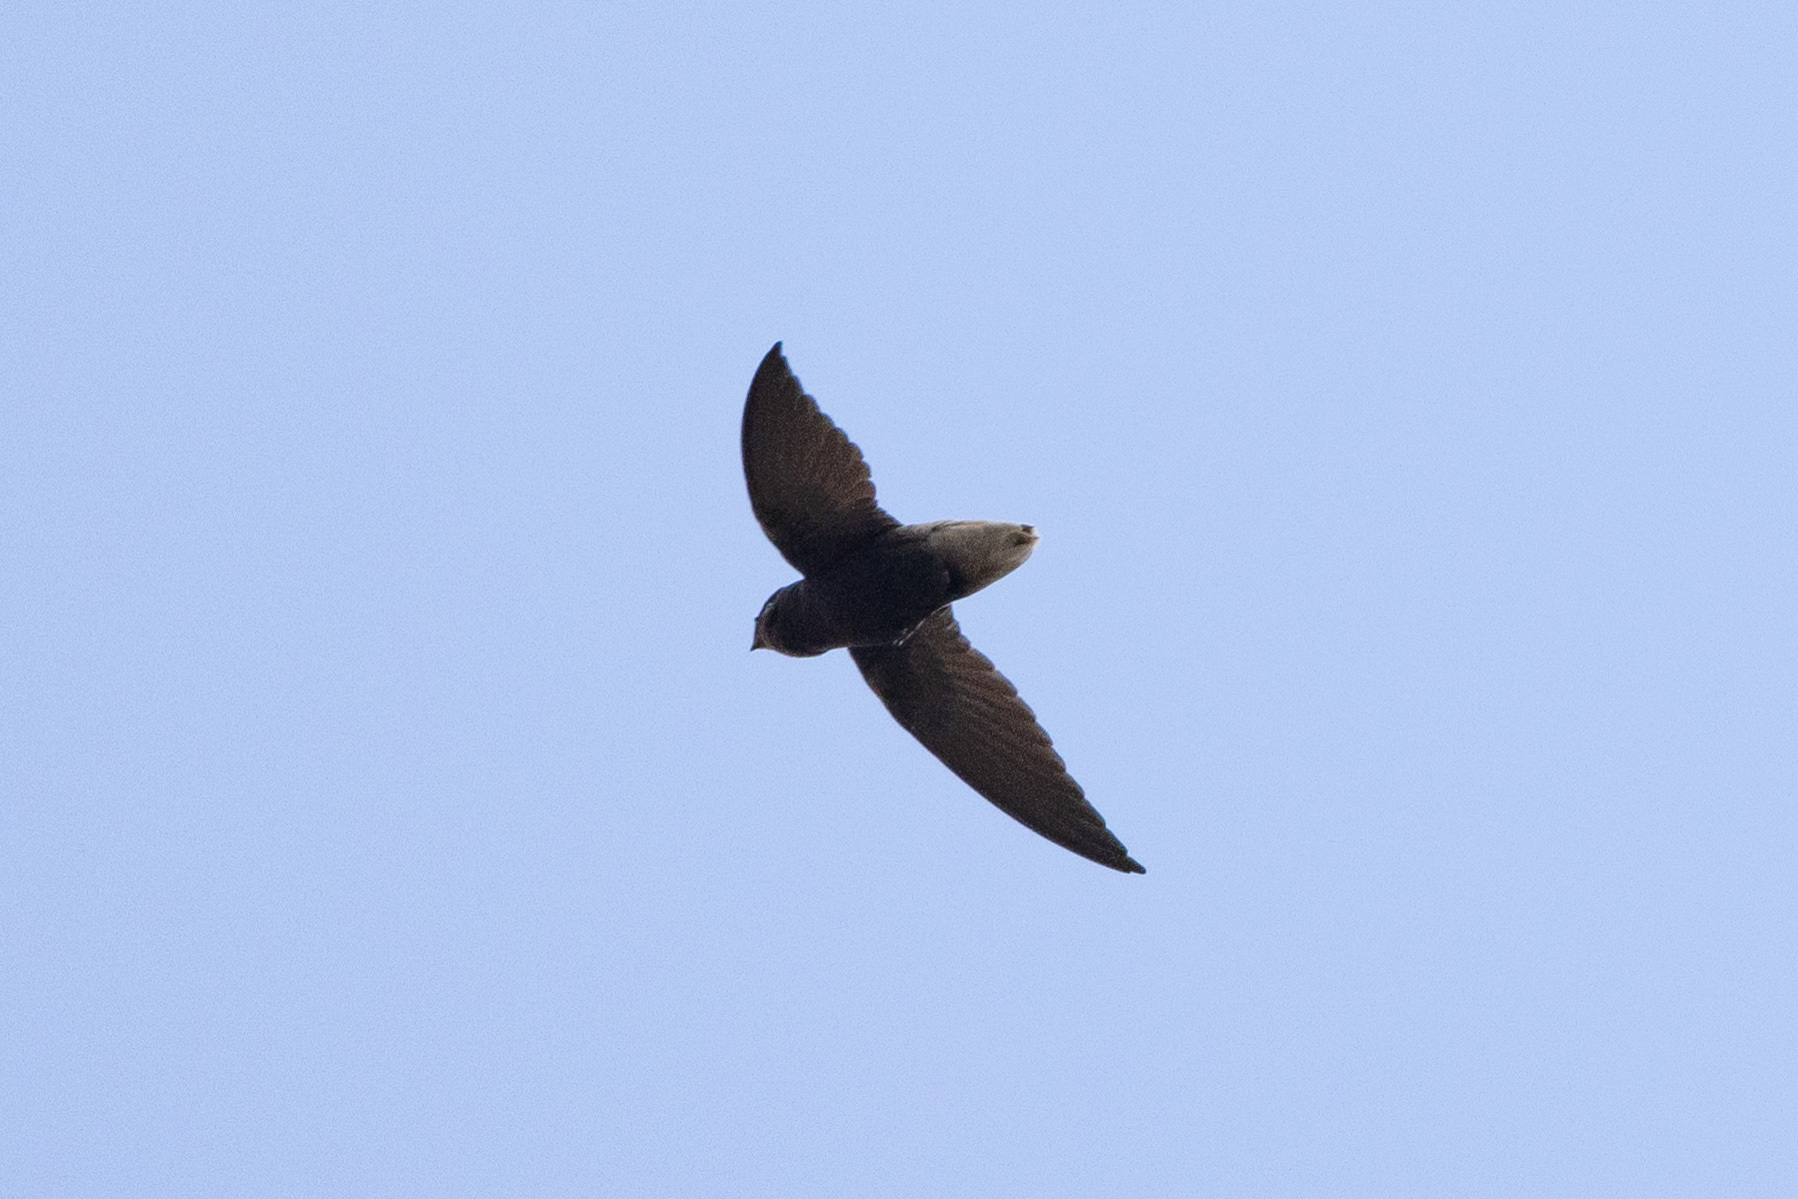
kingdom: Animalia
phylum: Chordata
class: Aves
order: Apodiformes
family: Apodidae
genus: Chaetura
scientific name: Chaetura brachyura
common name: Short-tailed swift
